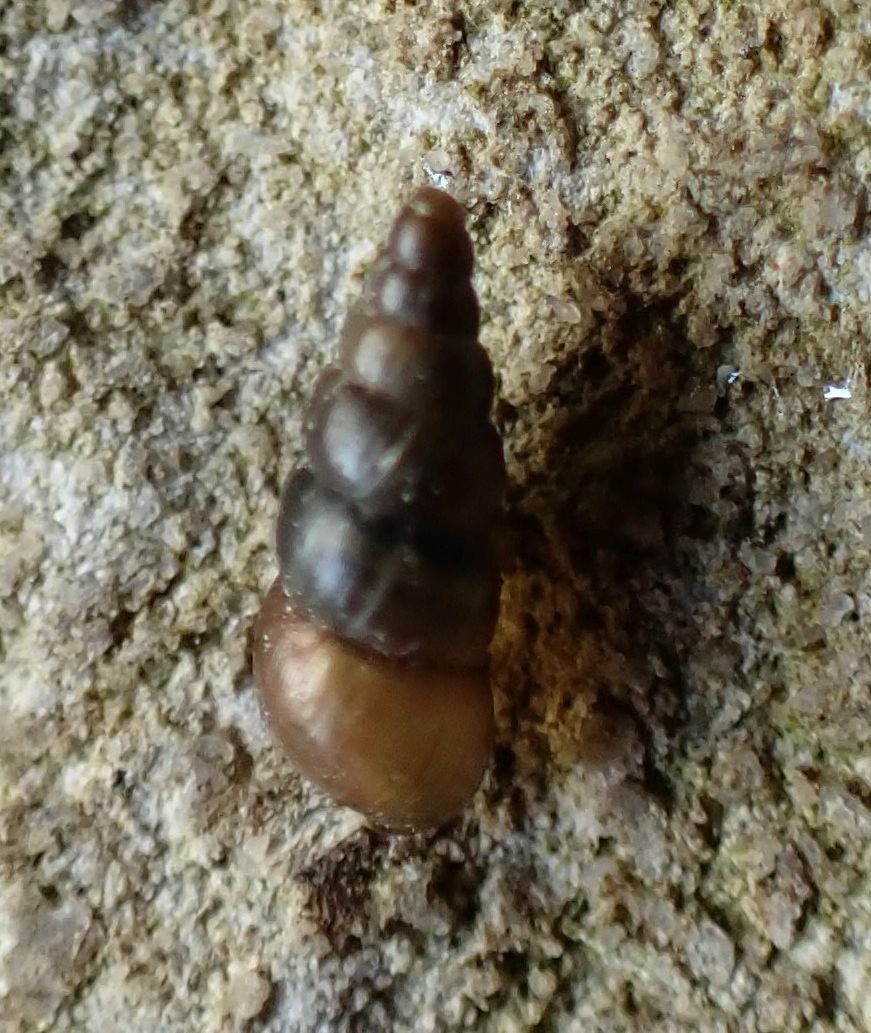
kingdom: Animalia
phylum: Mollusca
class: Gastropoda
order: Stylommatophora
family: Clausiliidae
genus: Balea
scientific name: Balea heydeni
